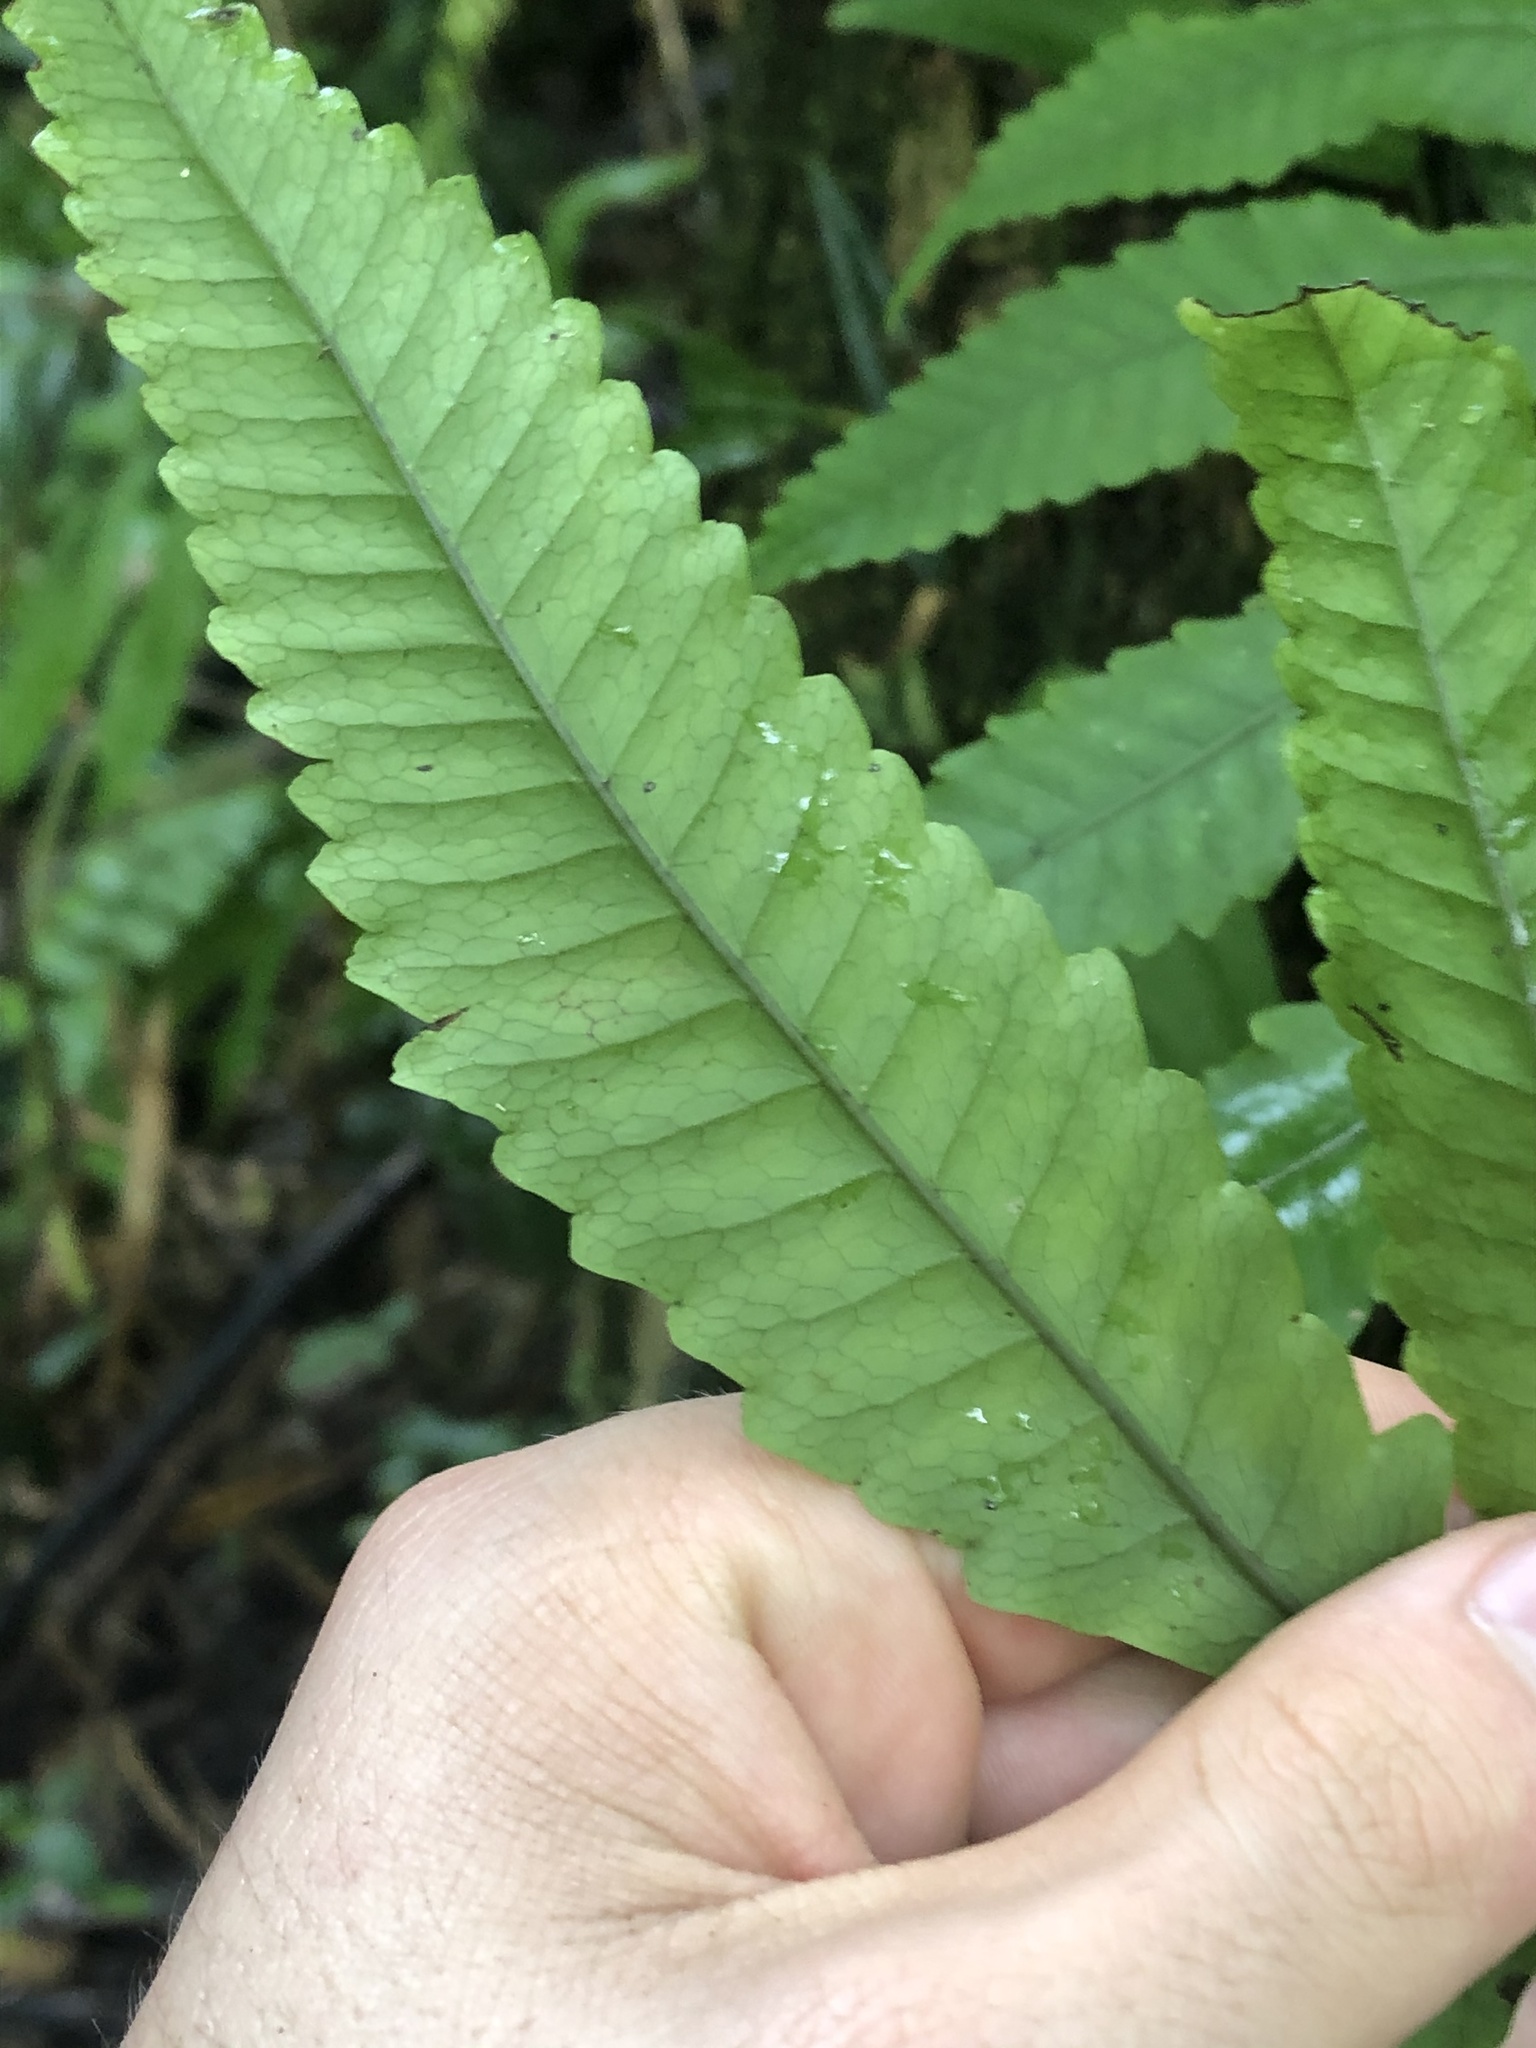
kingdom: Plantae
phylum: Tracheophyta
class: Polypodiopsida
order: Polypodiales
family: Dryopteridaceae
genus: Mickelia
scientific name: Mickelia lindigii
